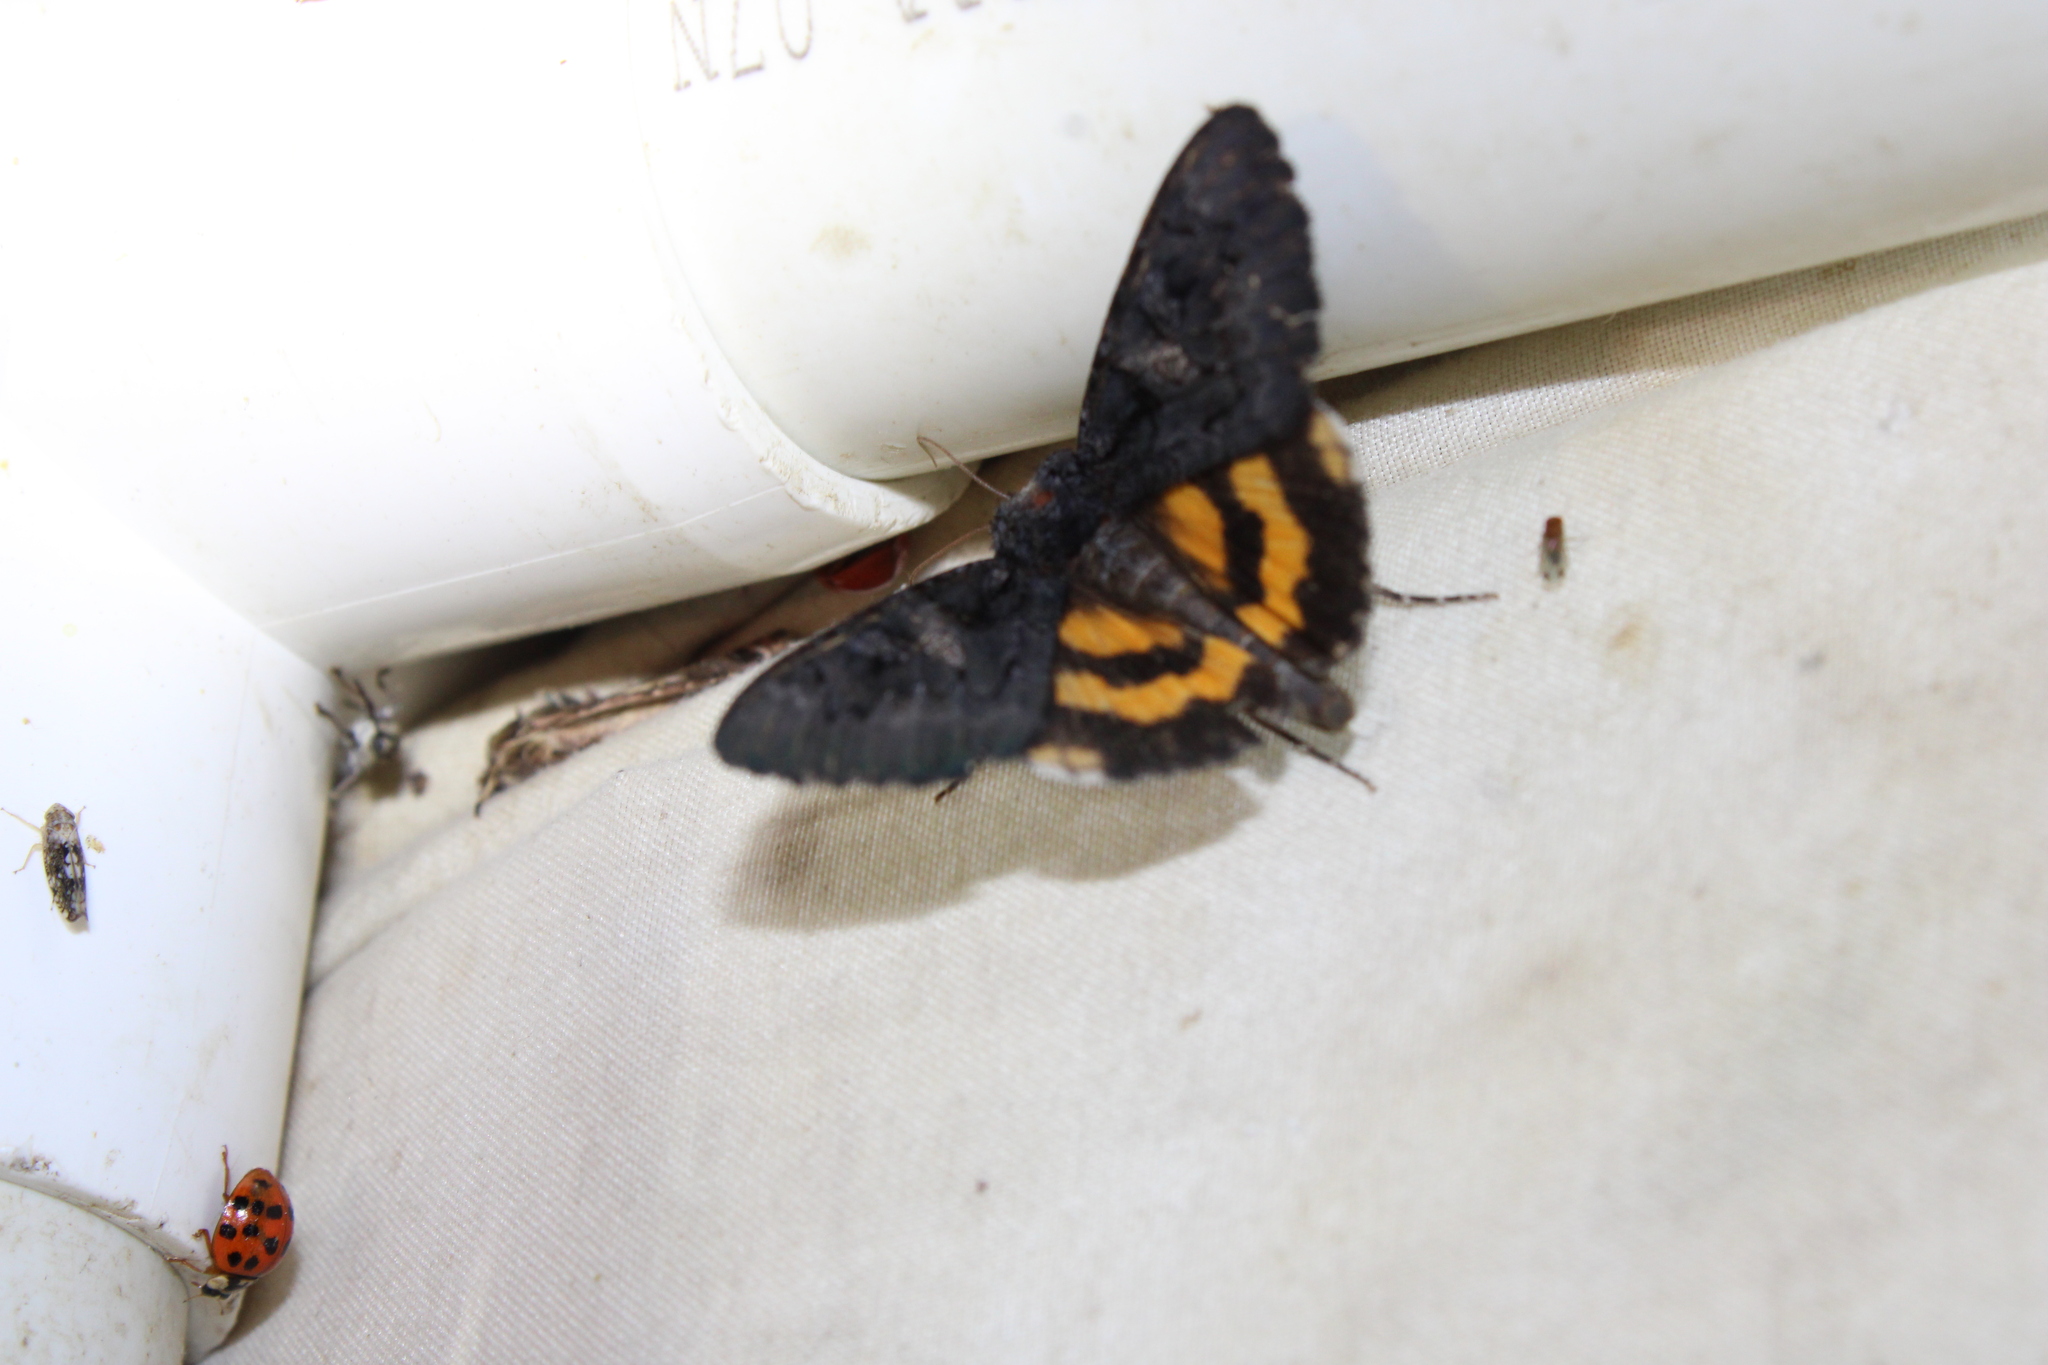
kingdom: Animalia
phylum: Arthropoda
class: Insecta
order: Lepidoptera
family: Erebidae
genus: Catocala
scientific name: Catocala antinympha
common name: Sweetfern underwing
